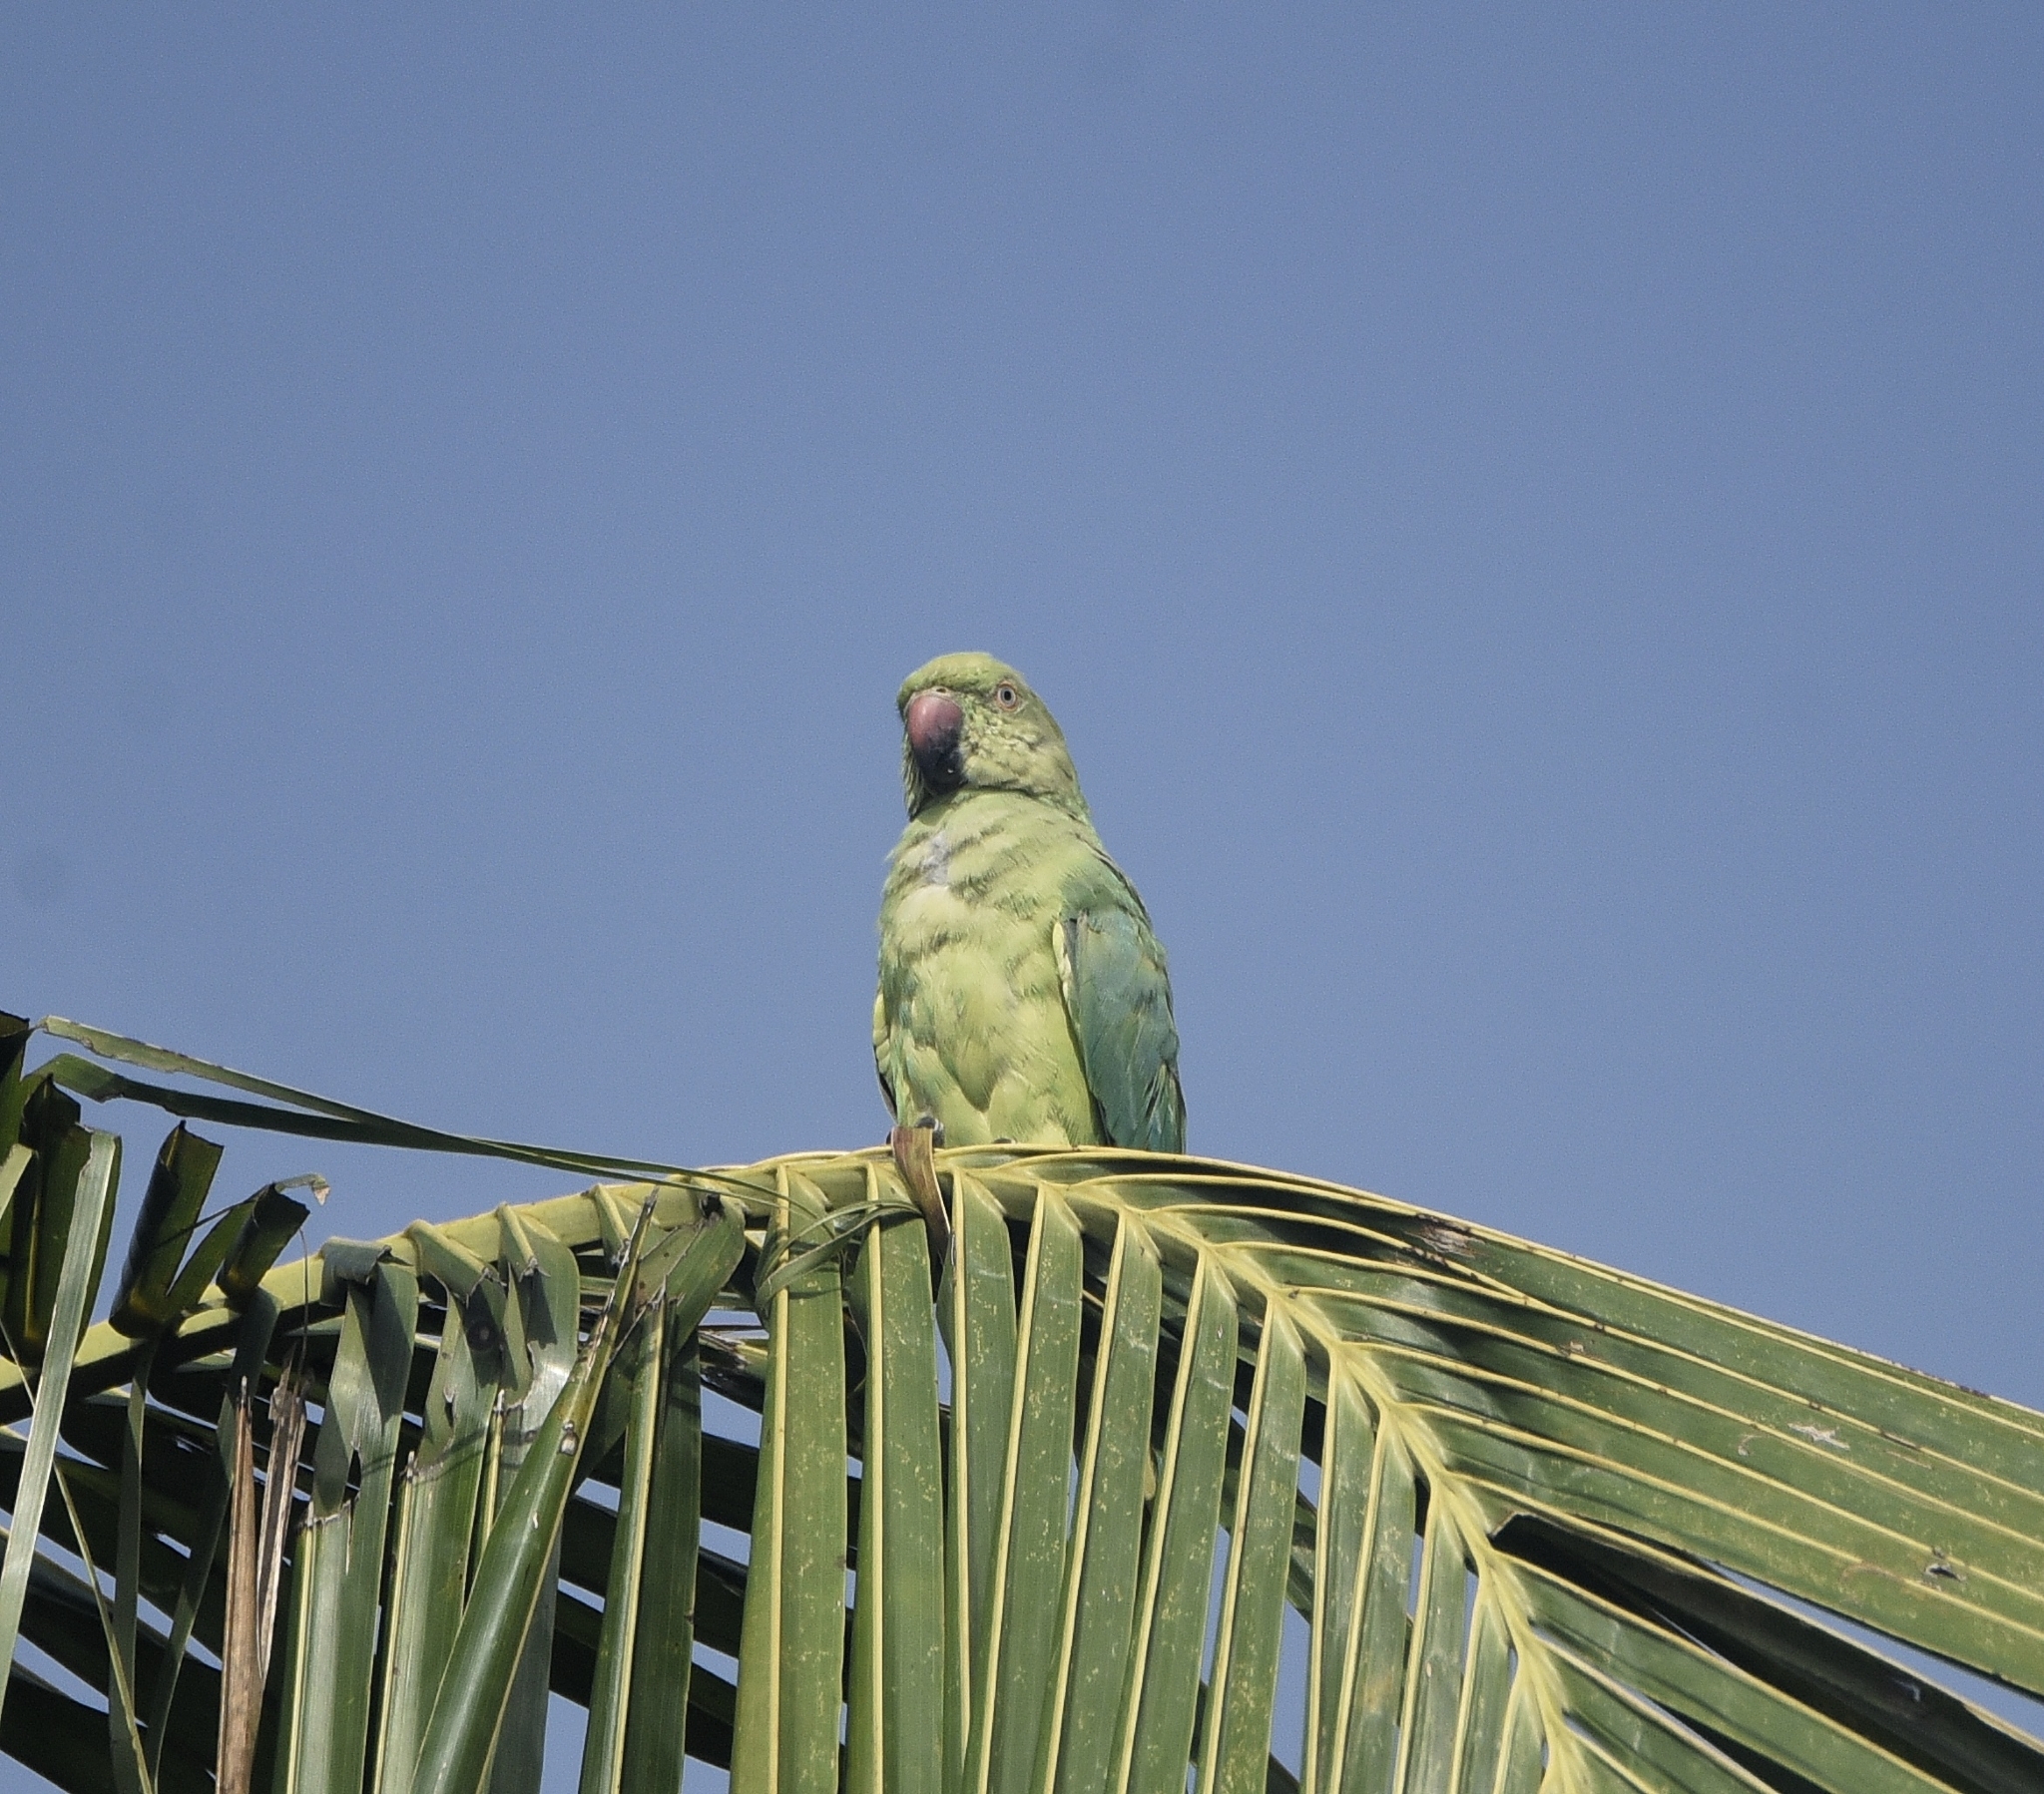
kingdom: Animalia
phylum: Chordata
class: Aves
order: Psittaciformes
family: Psittacidae
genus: Psittacula
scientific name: Psittacula krameri
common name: Rose-ringed parakeet
